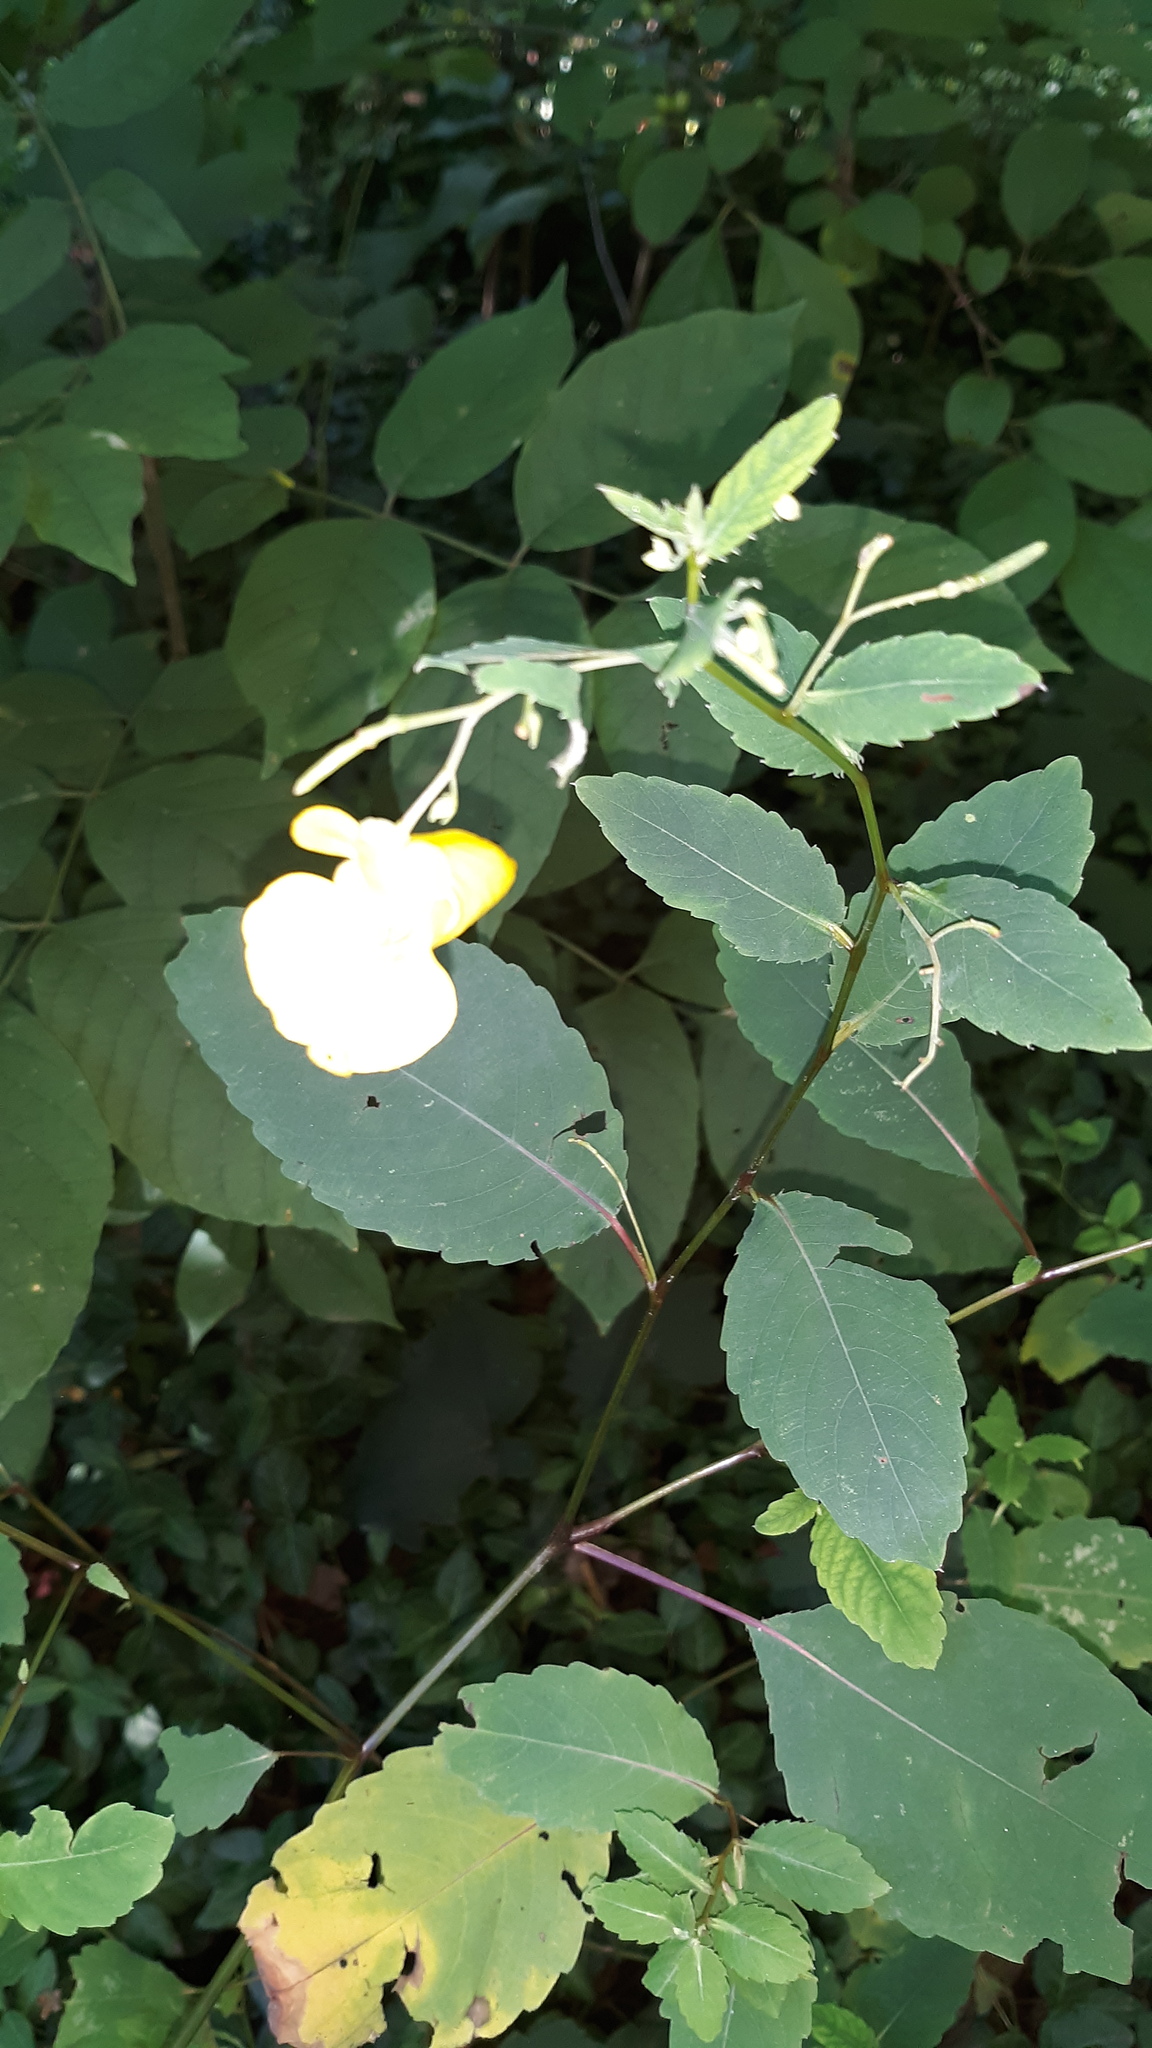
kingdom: Plantae
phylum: Tracheophyta
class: Magnoliopsida
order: Ericales
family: Balsaminaceae
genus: Impatiens
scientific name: Impatiens pallida
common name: Pale snapweed
